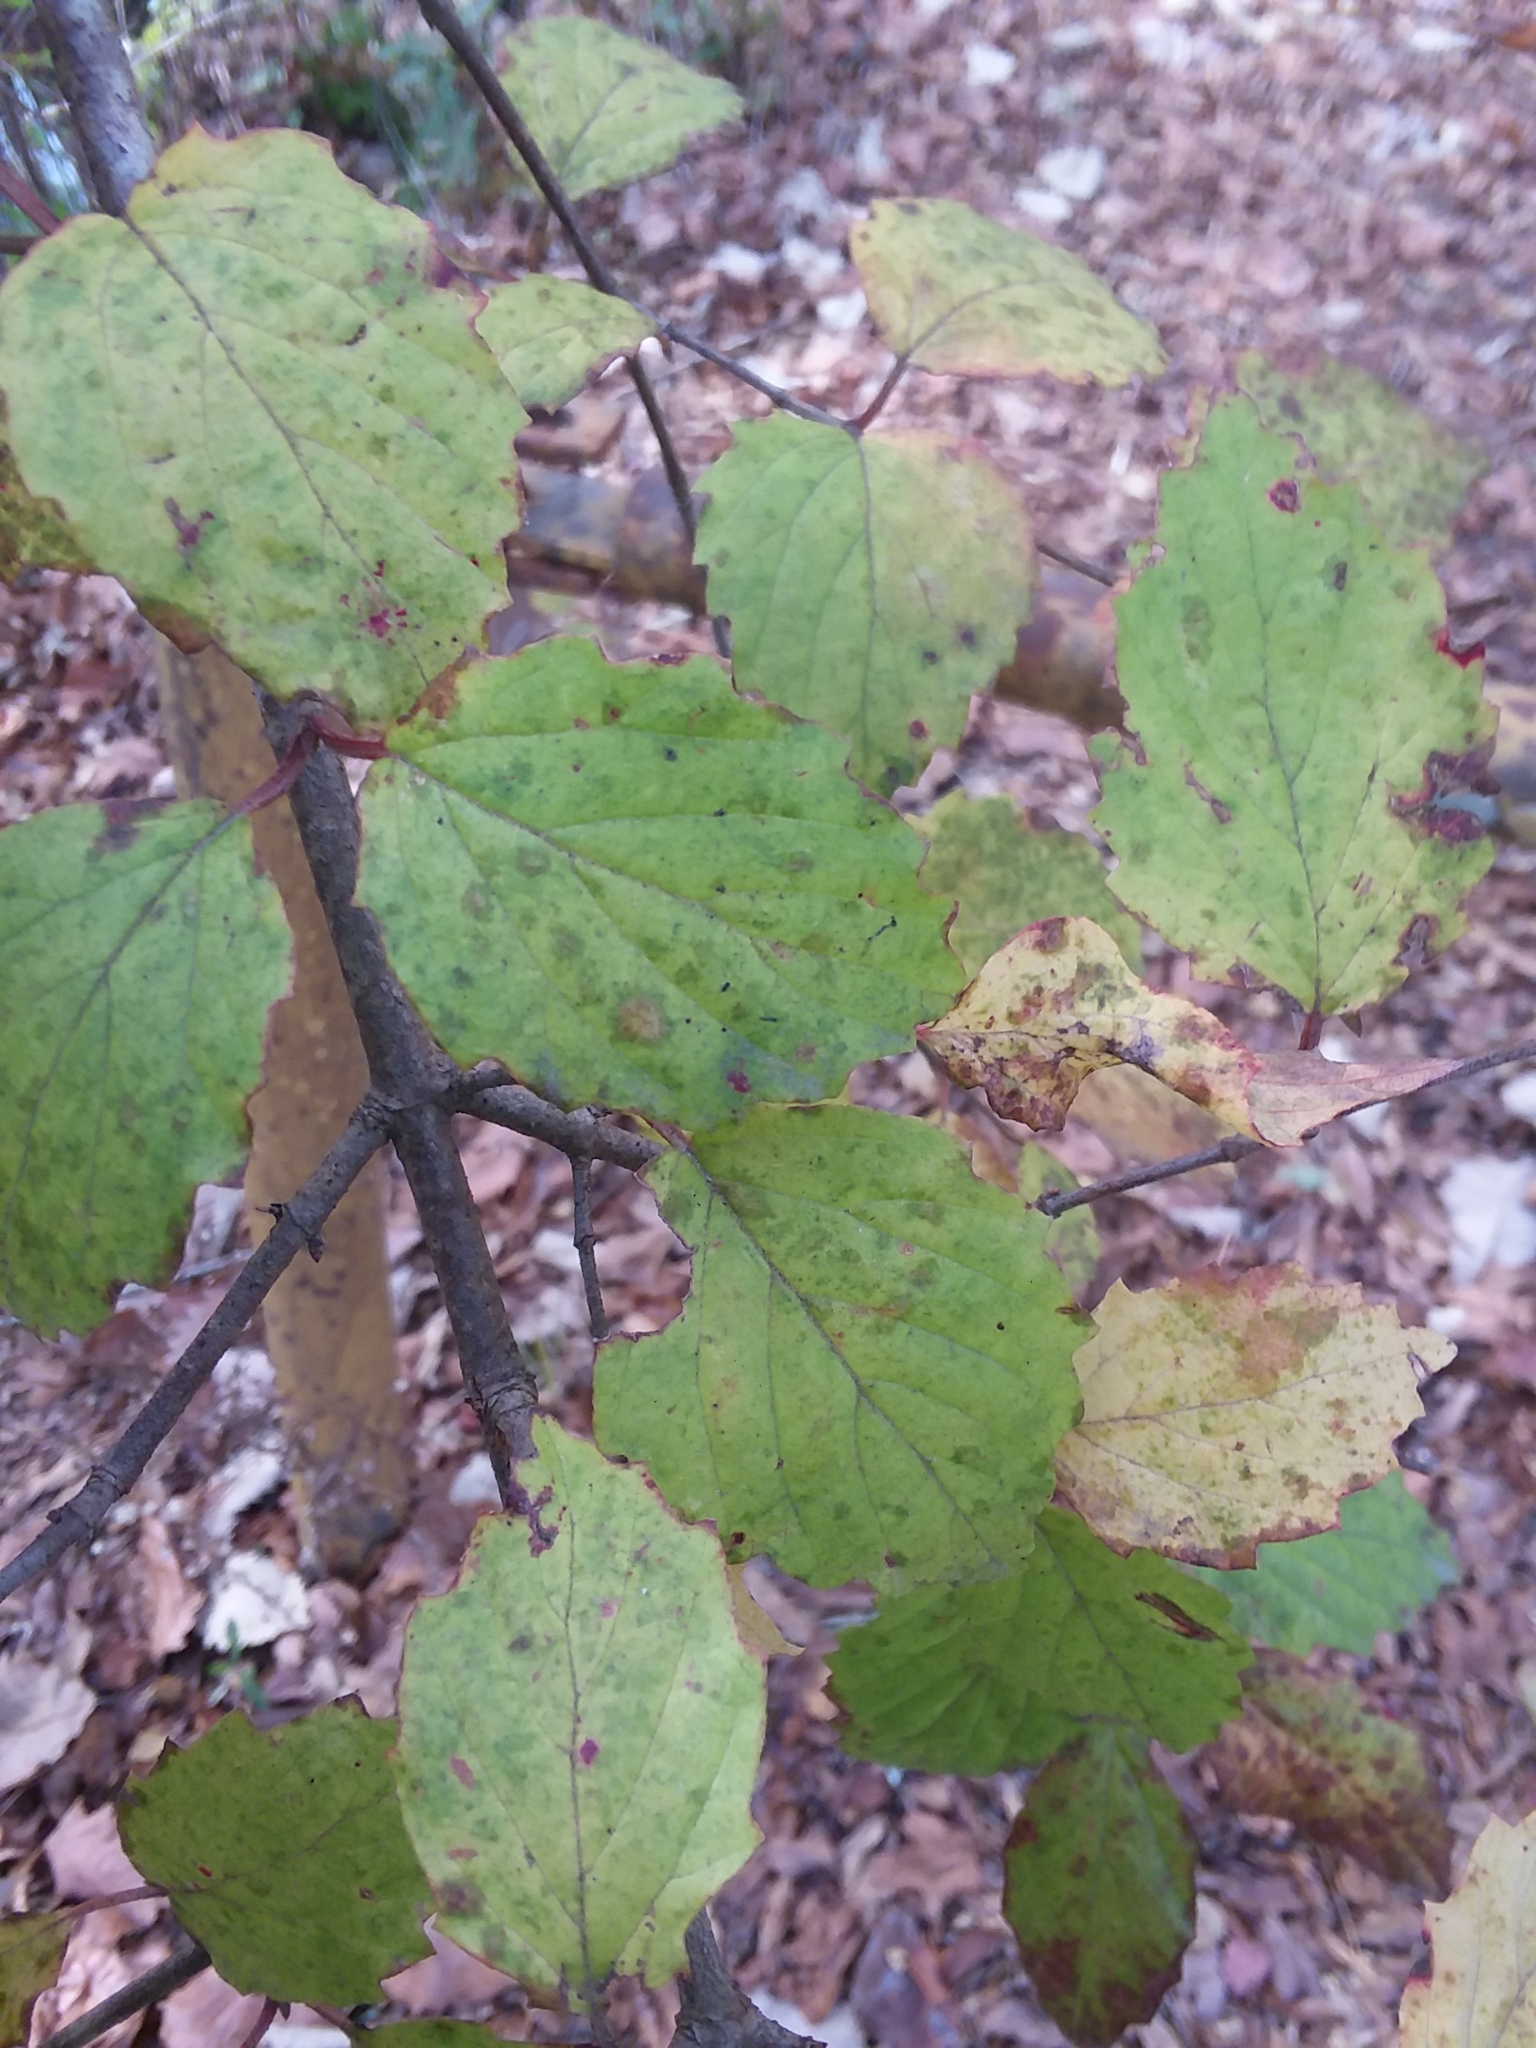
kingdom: Plantae
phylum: Tracheophyta
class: Magnoliopsida
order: Dipsacales
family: Viburnaceae
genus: Viburnum
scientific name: Viburnum scabrellum
